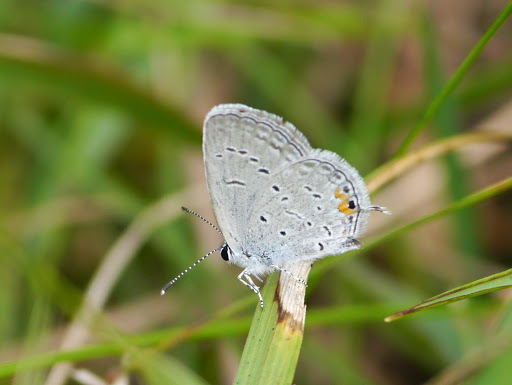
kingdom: Animalia
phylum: Arthropoda
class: Insecta
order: Lepidoptera
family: Lycaenidae
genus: Elkalyce
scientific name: Elkalyce comyntas
